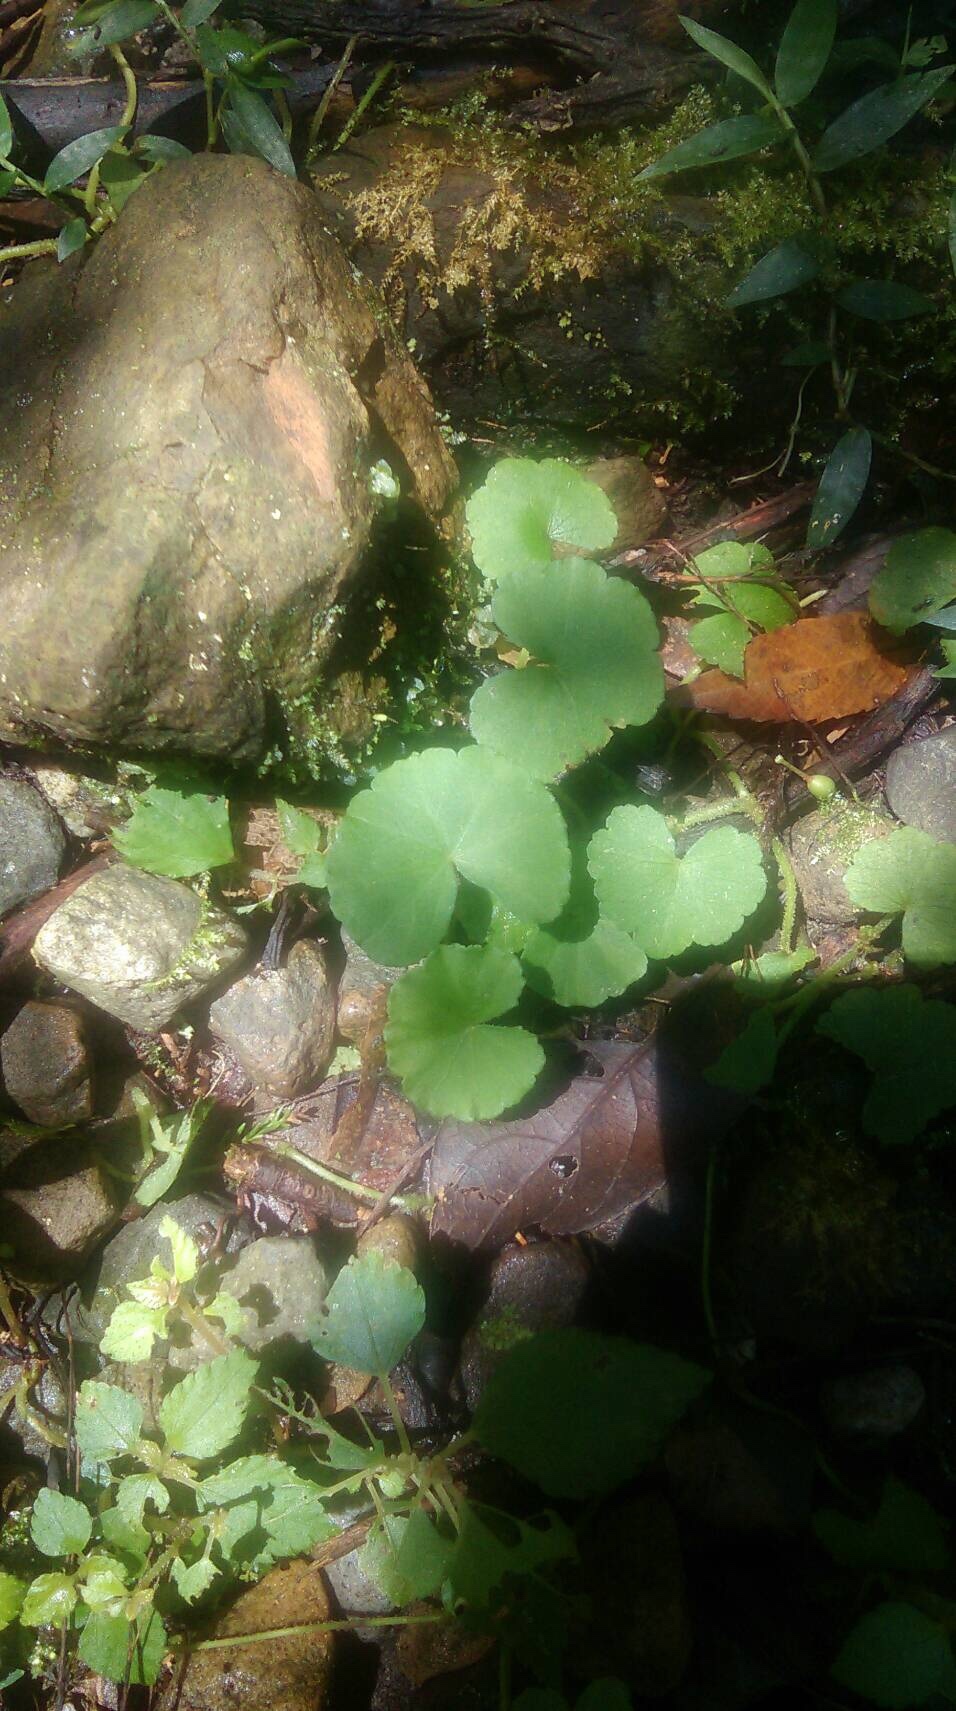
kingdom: Plantae
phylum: Tracheophyta
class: Magnoliopsida
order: Apiales
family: Apiaceae
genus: Centella
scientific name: Centella asiatica
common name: Spadeleaf
